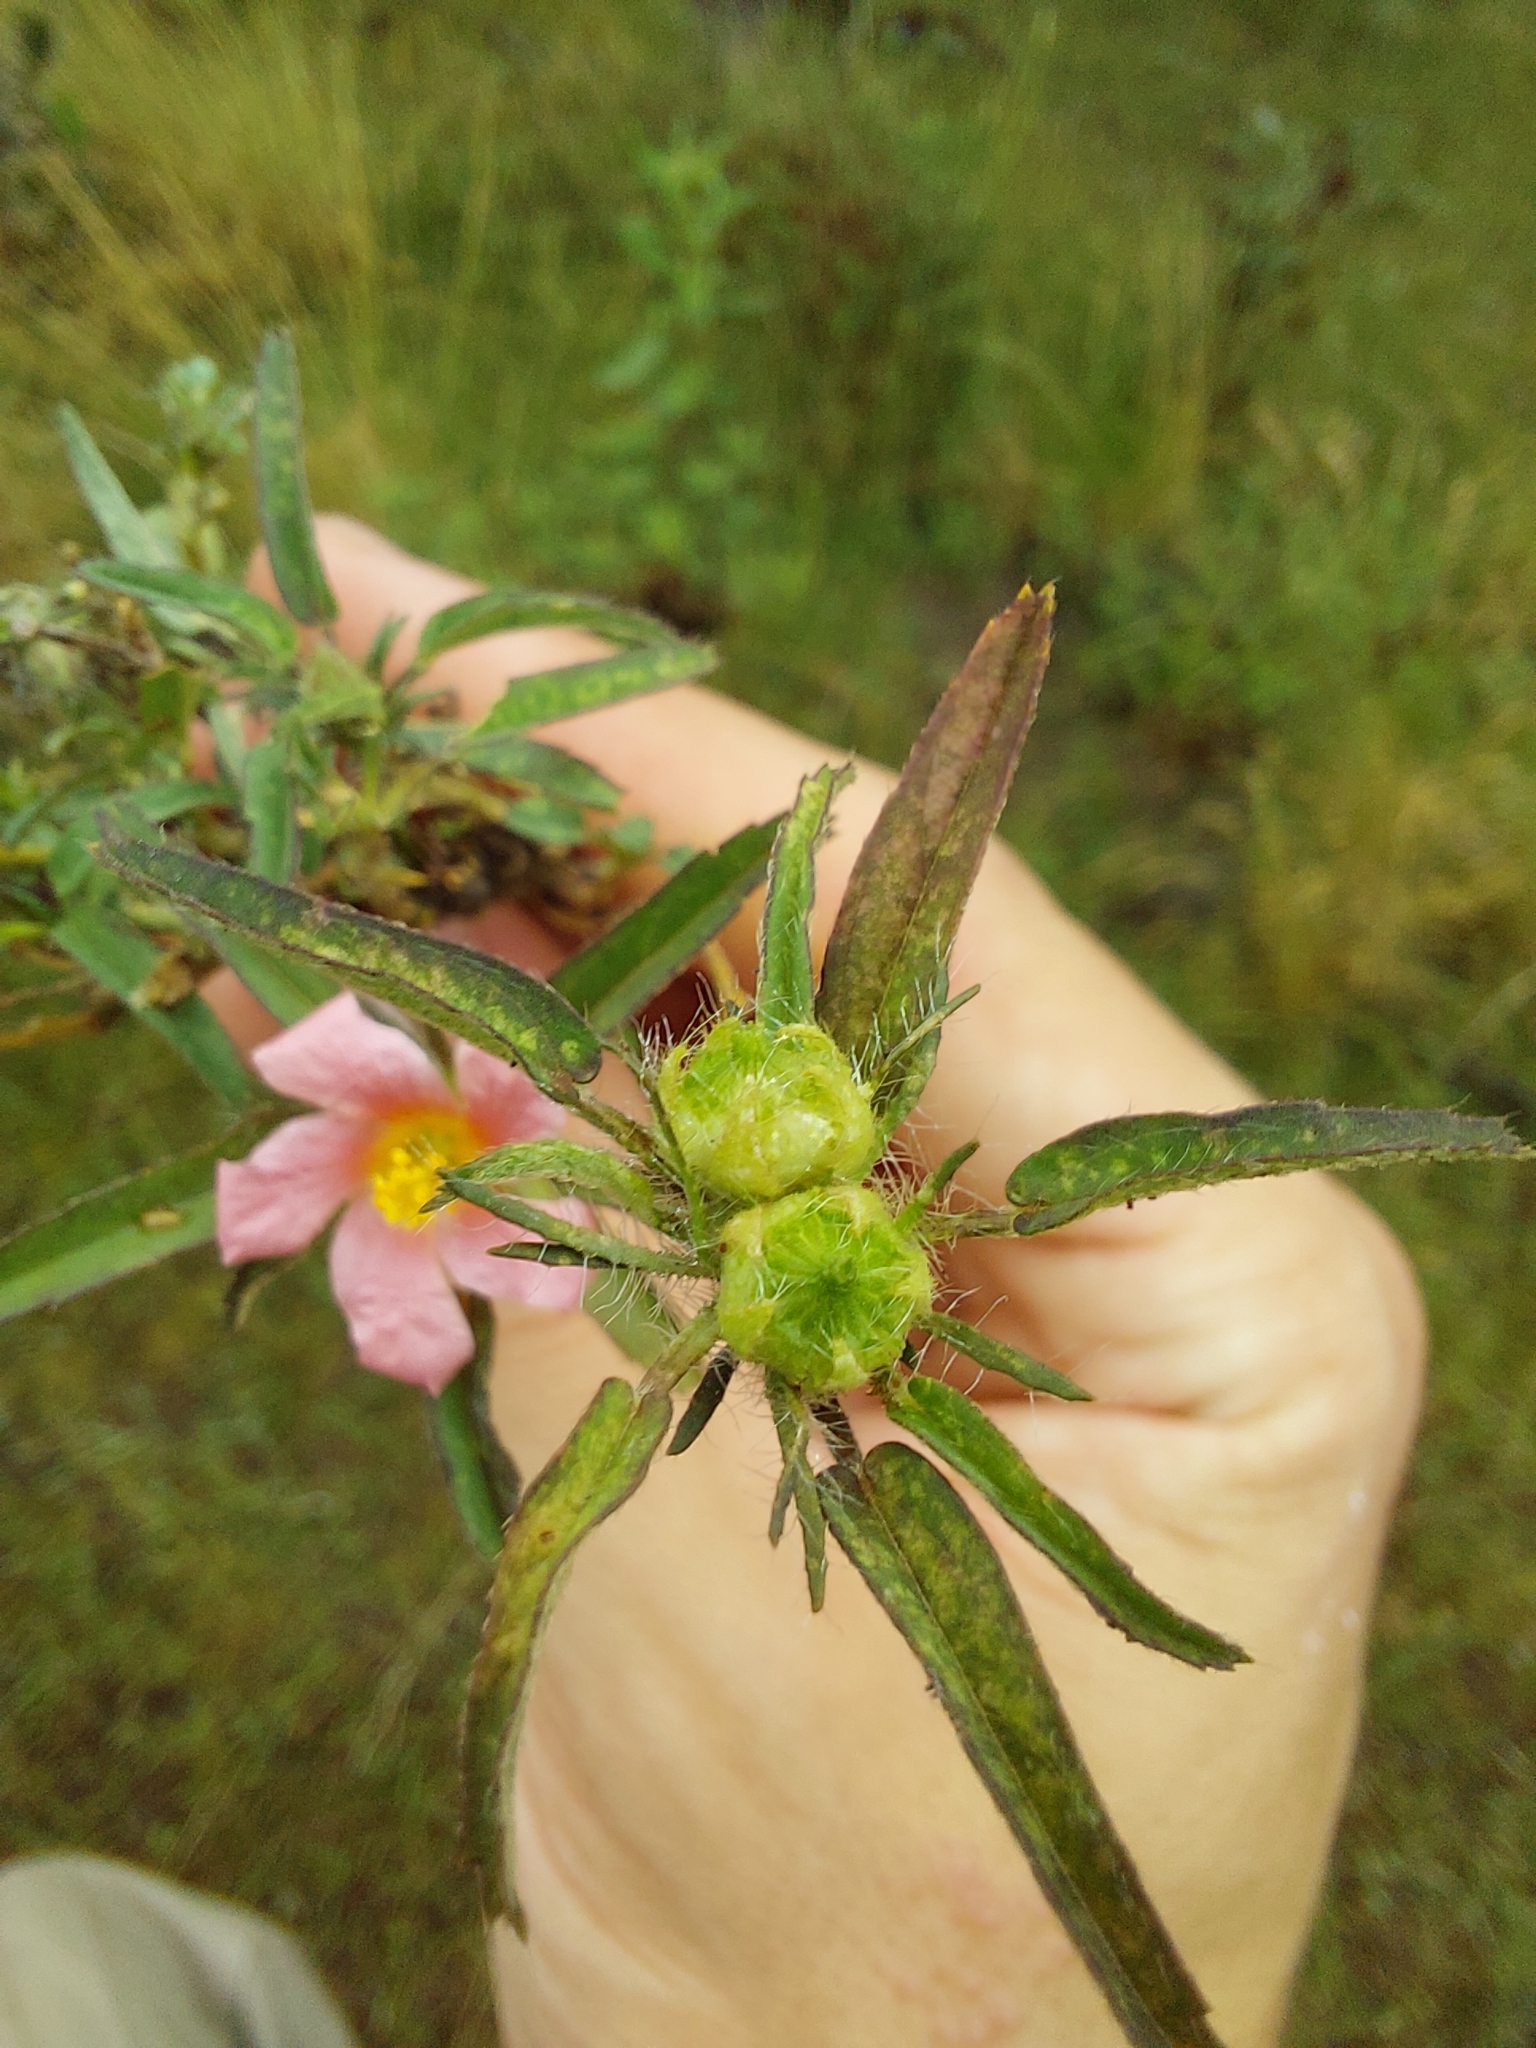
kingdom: Plantae
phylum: Tracheophyta
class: Magnoliopsida
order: Malvales
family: Malvaceae
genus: Sida
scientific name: Sida anomala
